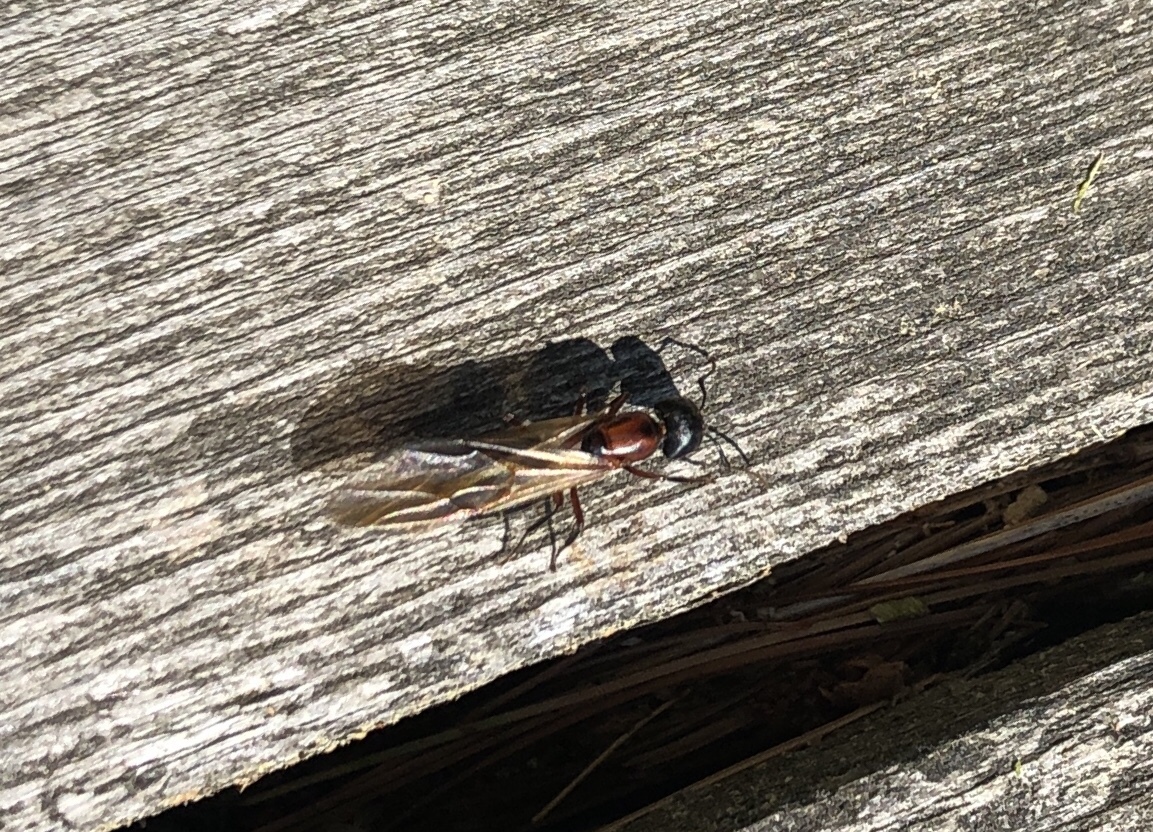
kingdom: Animalia
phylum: Arthropoda
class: Insecta
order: Hymenoptera
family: Formicidae
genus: Camponotus
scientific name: Camponotus novaeboracensis
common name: New york carpenter ant
